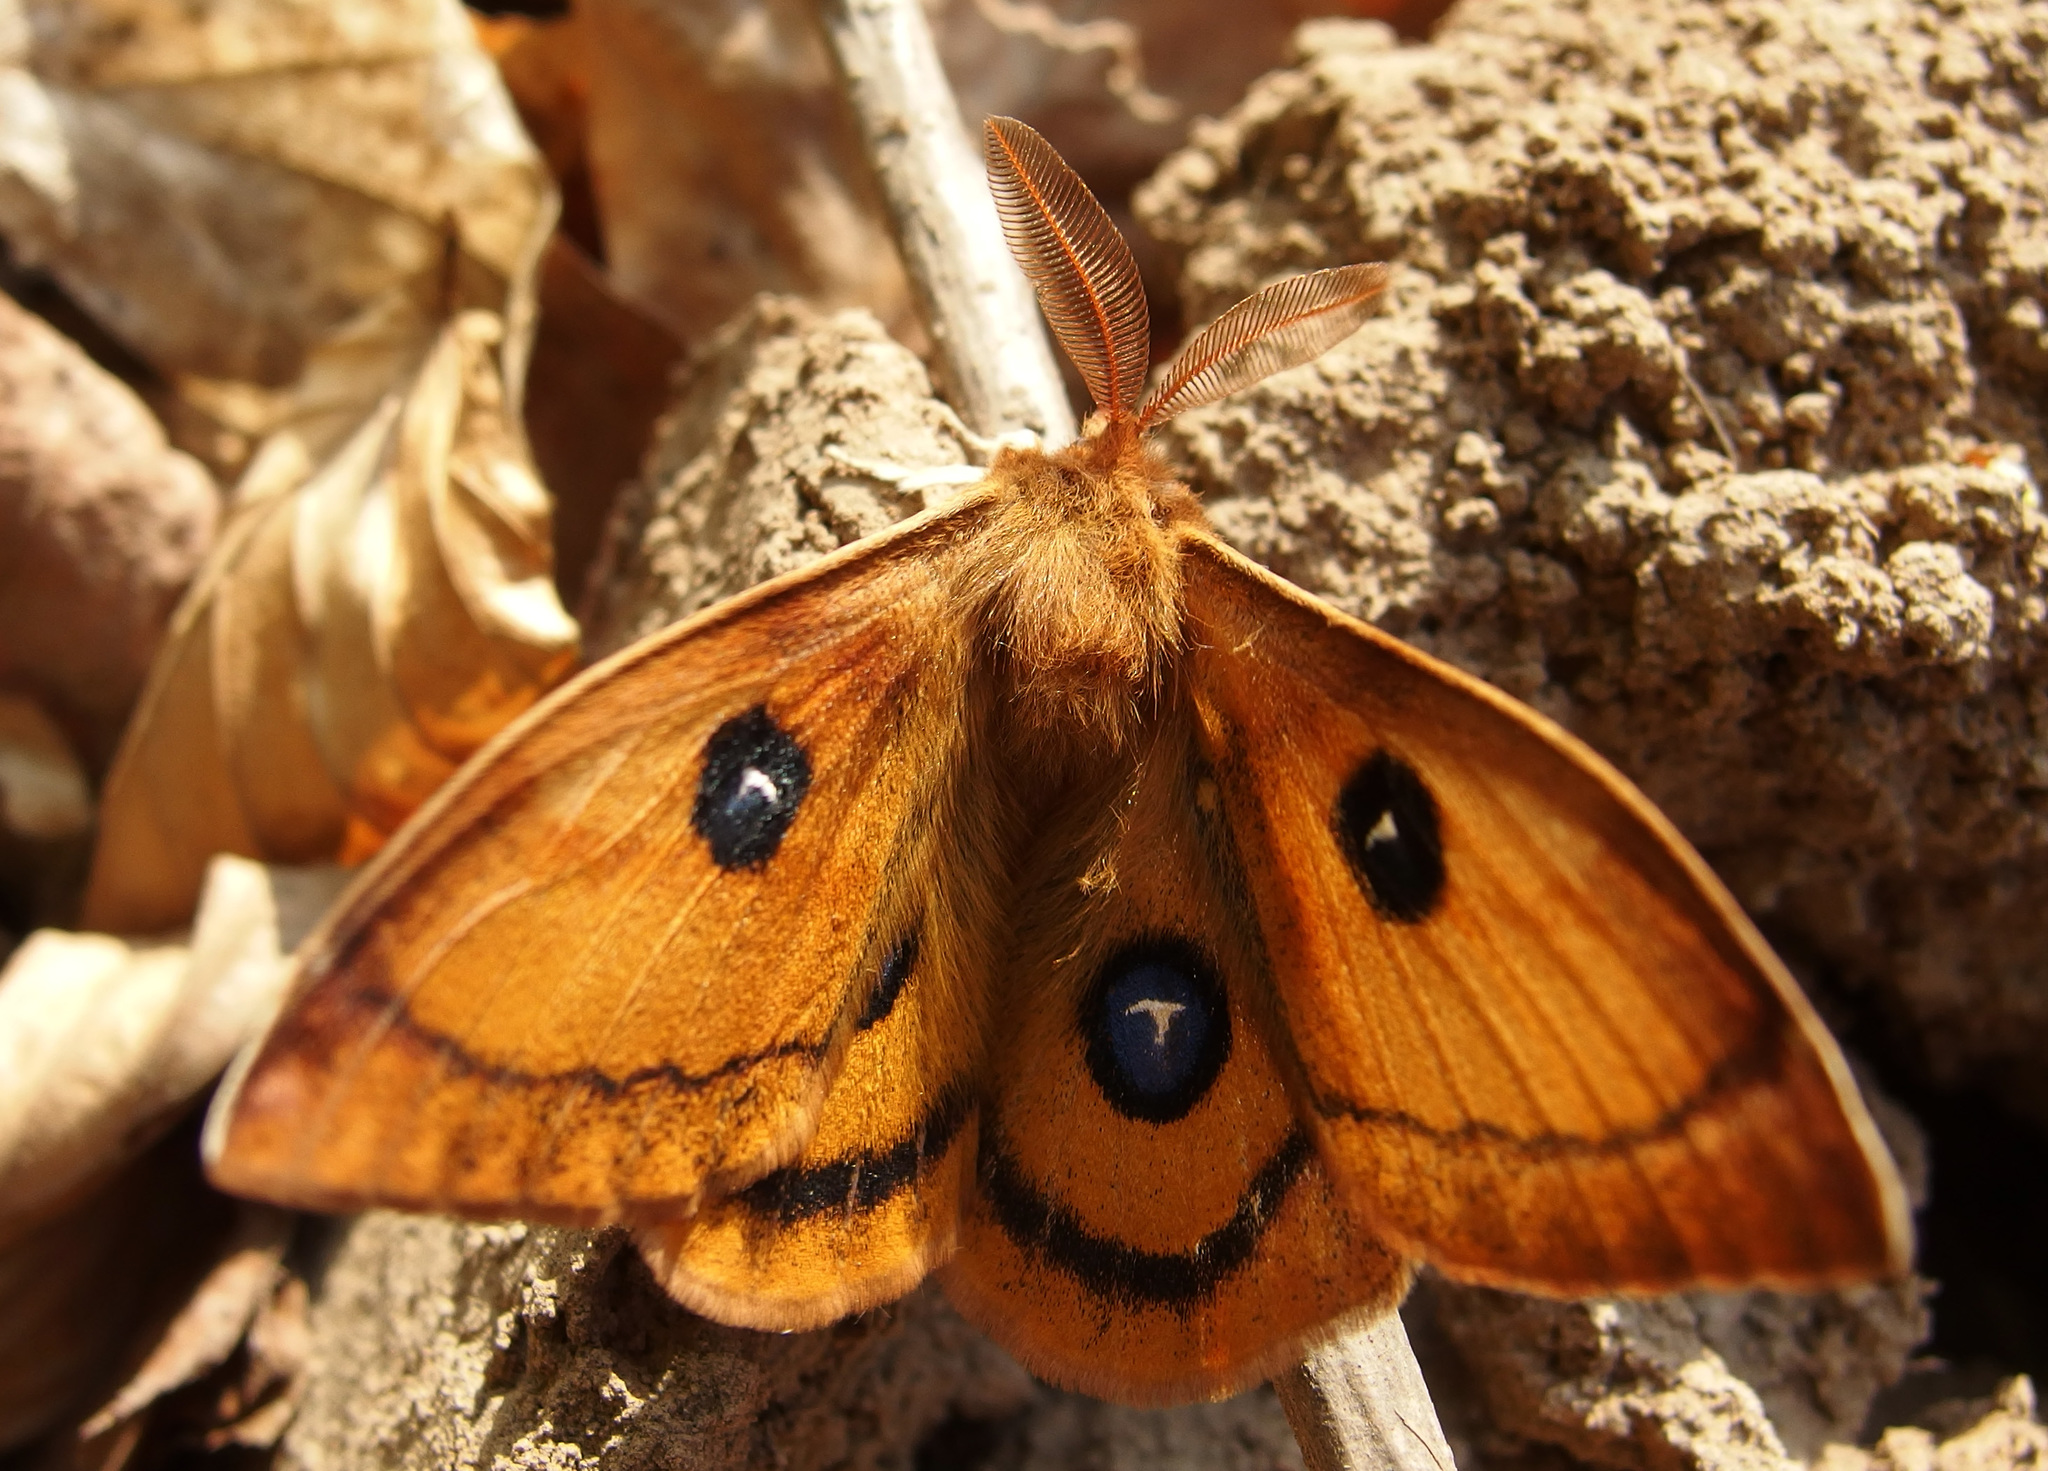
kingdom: Animalia
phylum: Arthropoda
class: Insecta
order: Lepidoptera
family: Saturniidae
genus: Aglia
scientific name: Aglia tau
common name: Tau emperor
